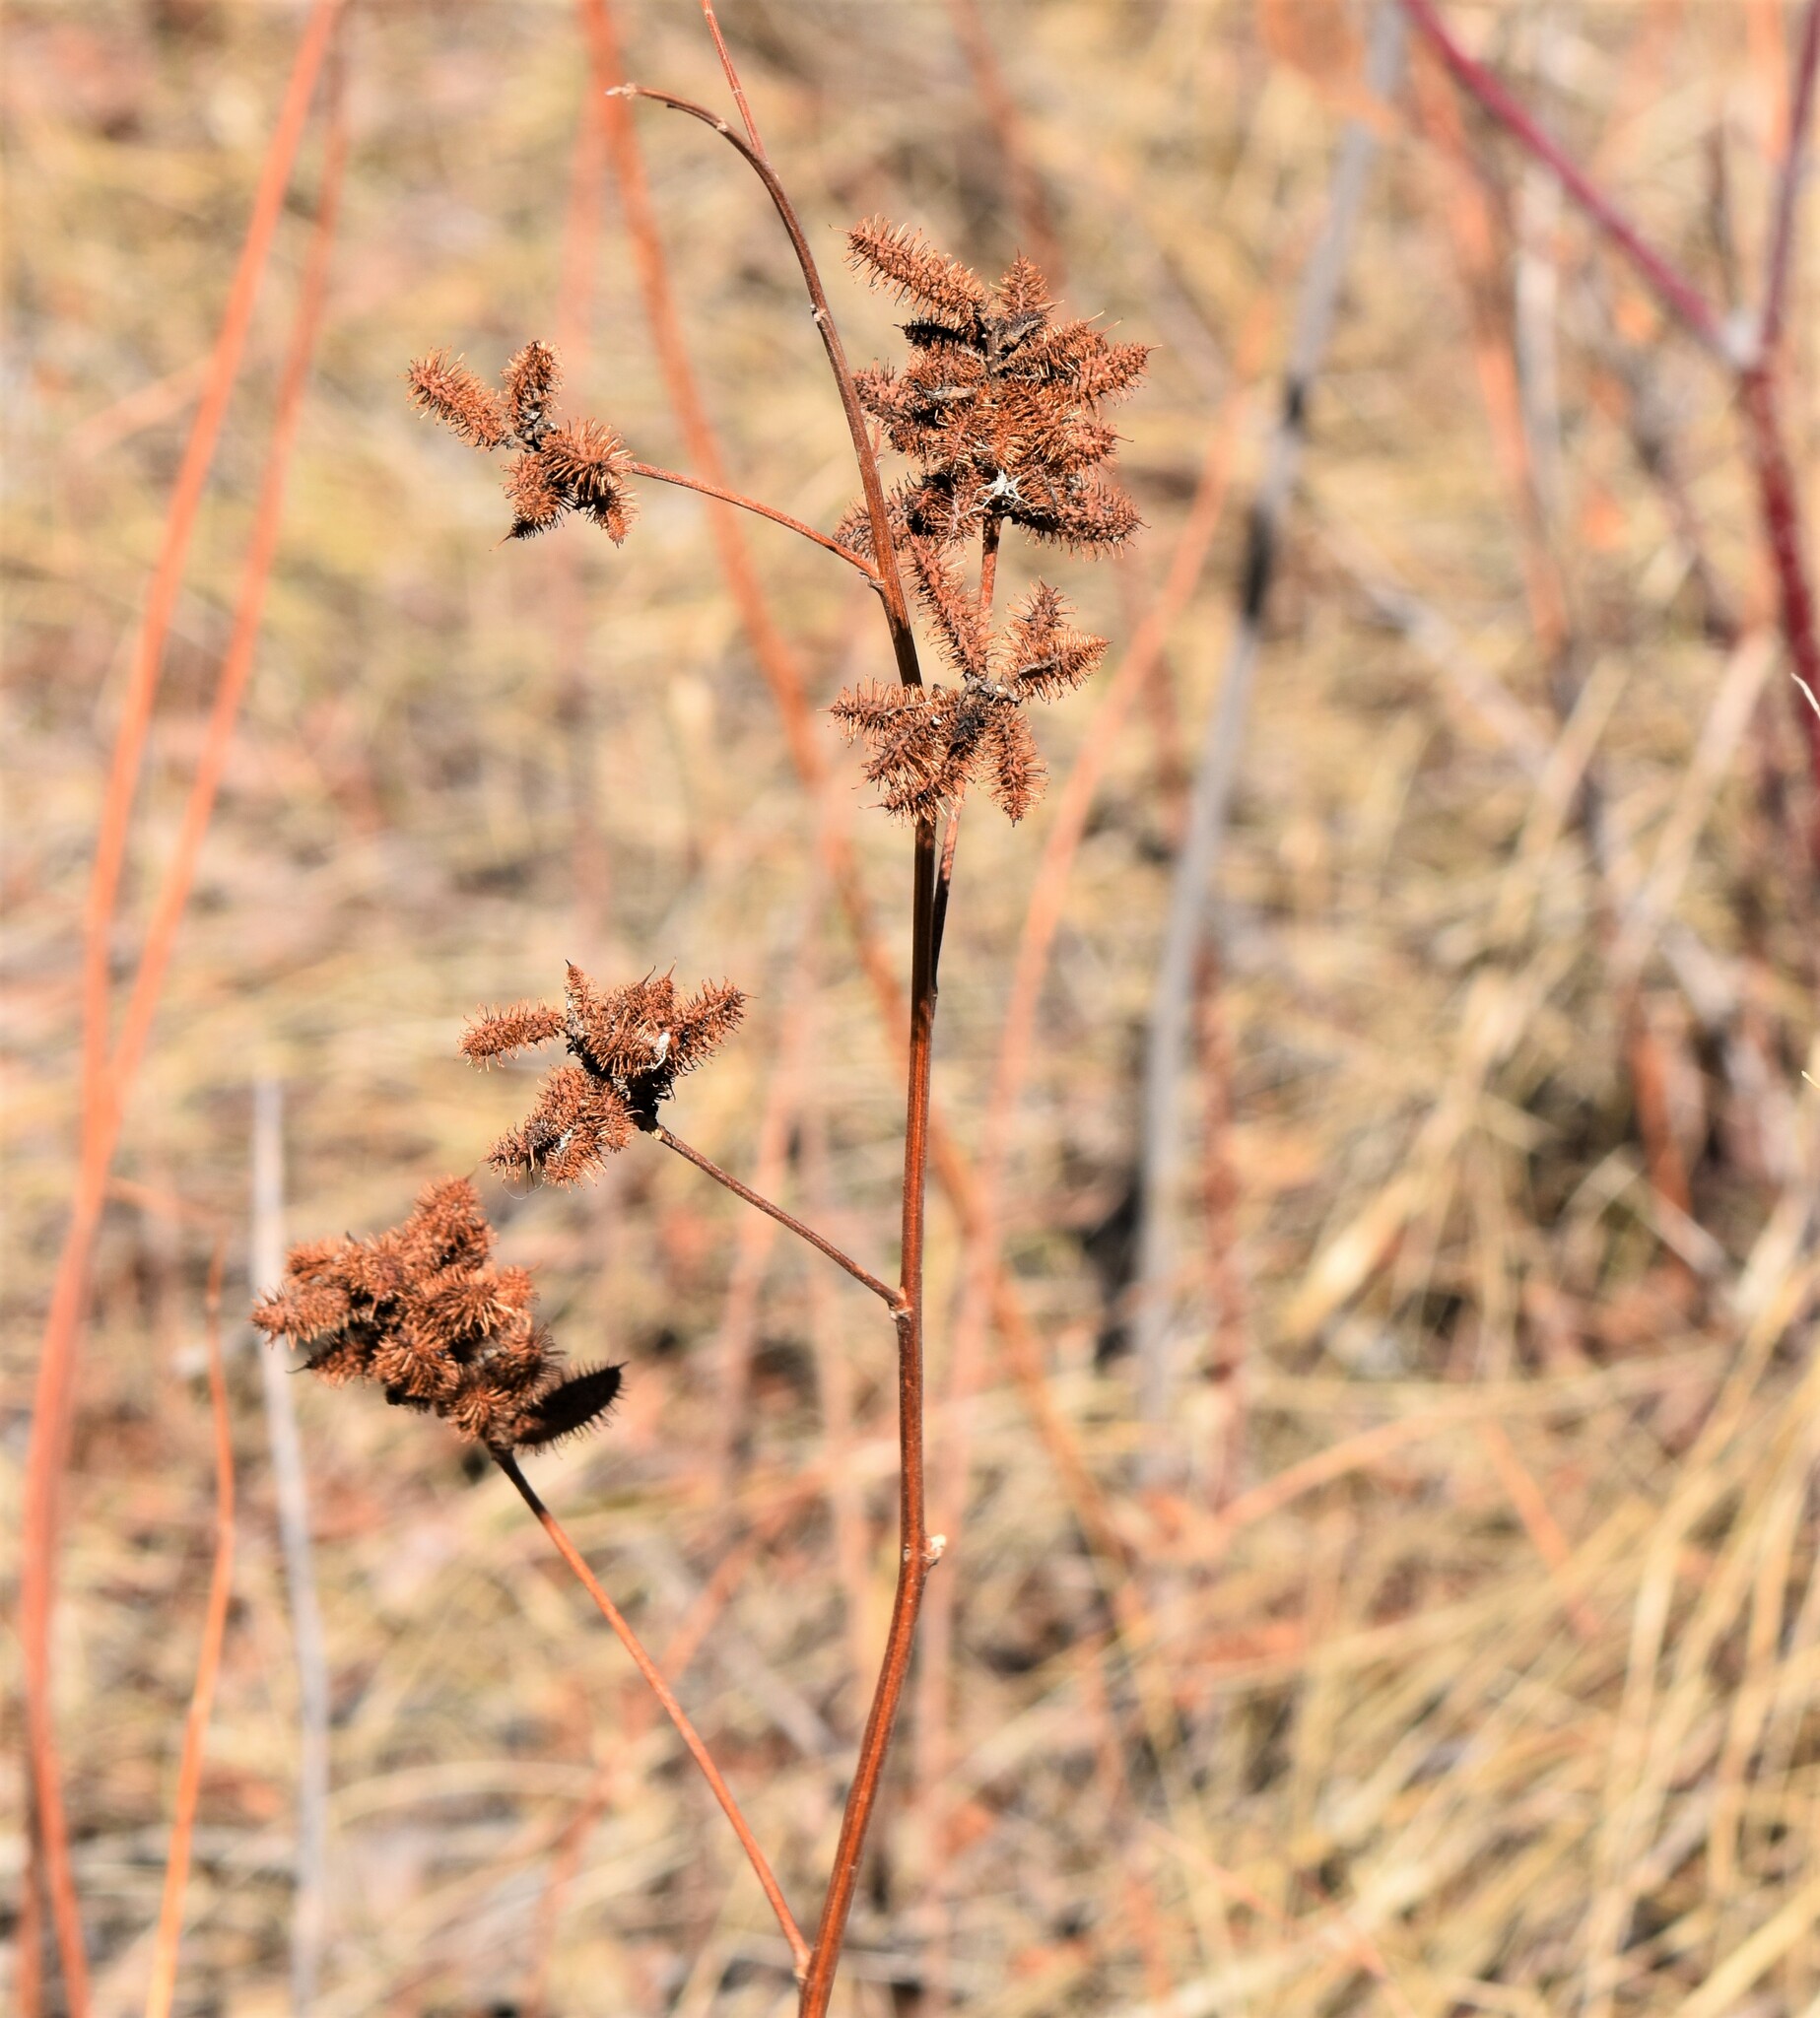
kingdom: Plantae
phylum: Tracheophyta
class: Magnoliopsida
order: Fabales
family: Fabaceae
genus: Glycyrrhiza
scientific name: Glycyrrhiza lepidota
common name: American liquorice
